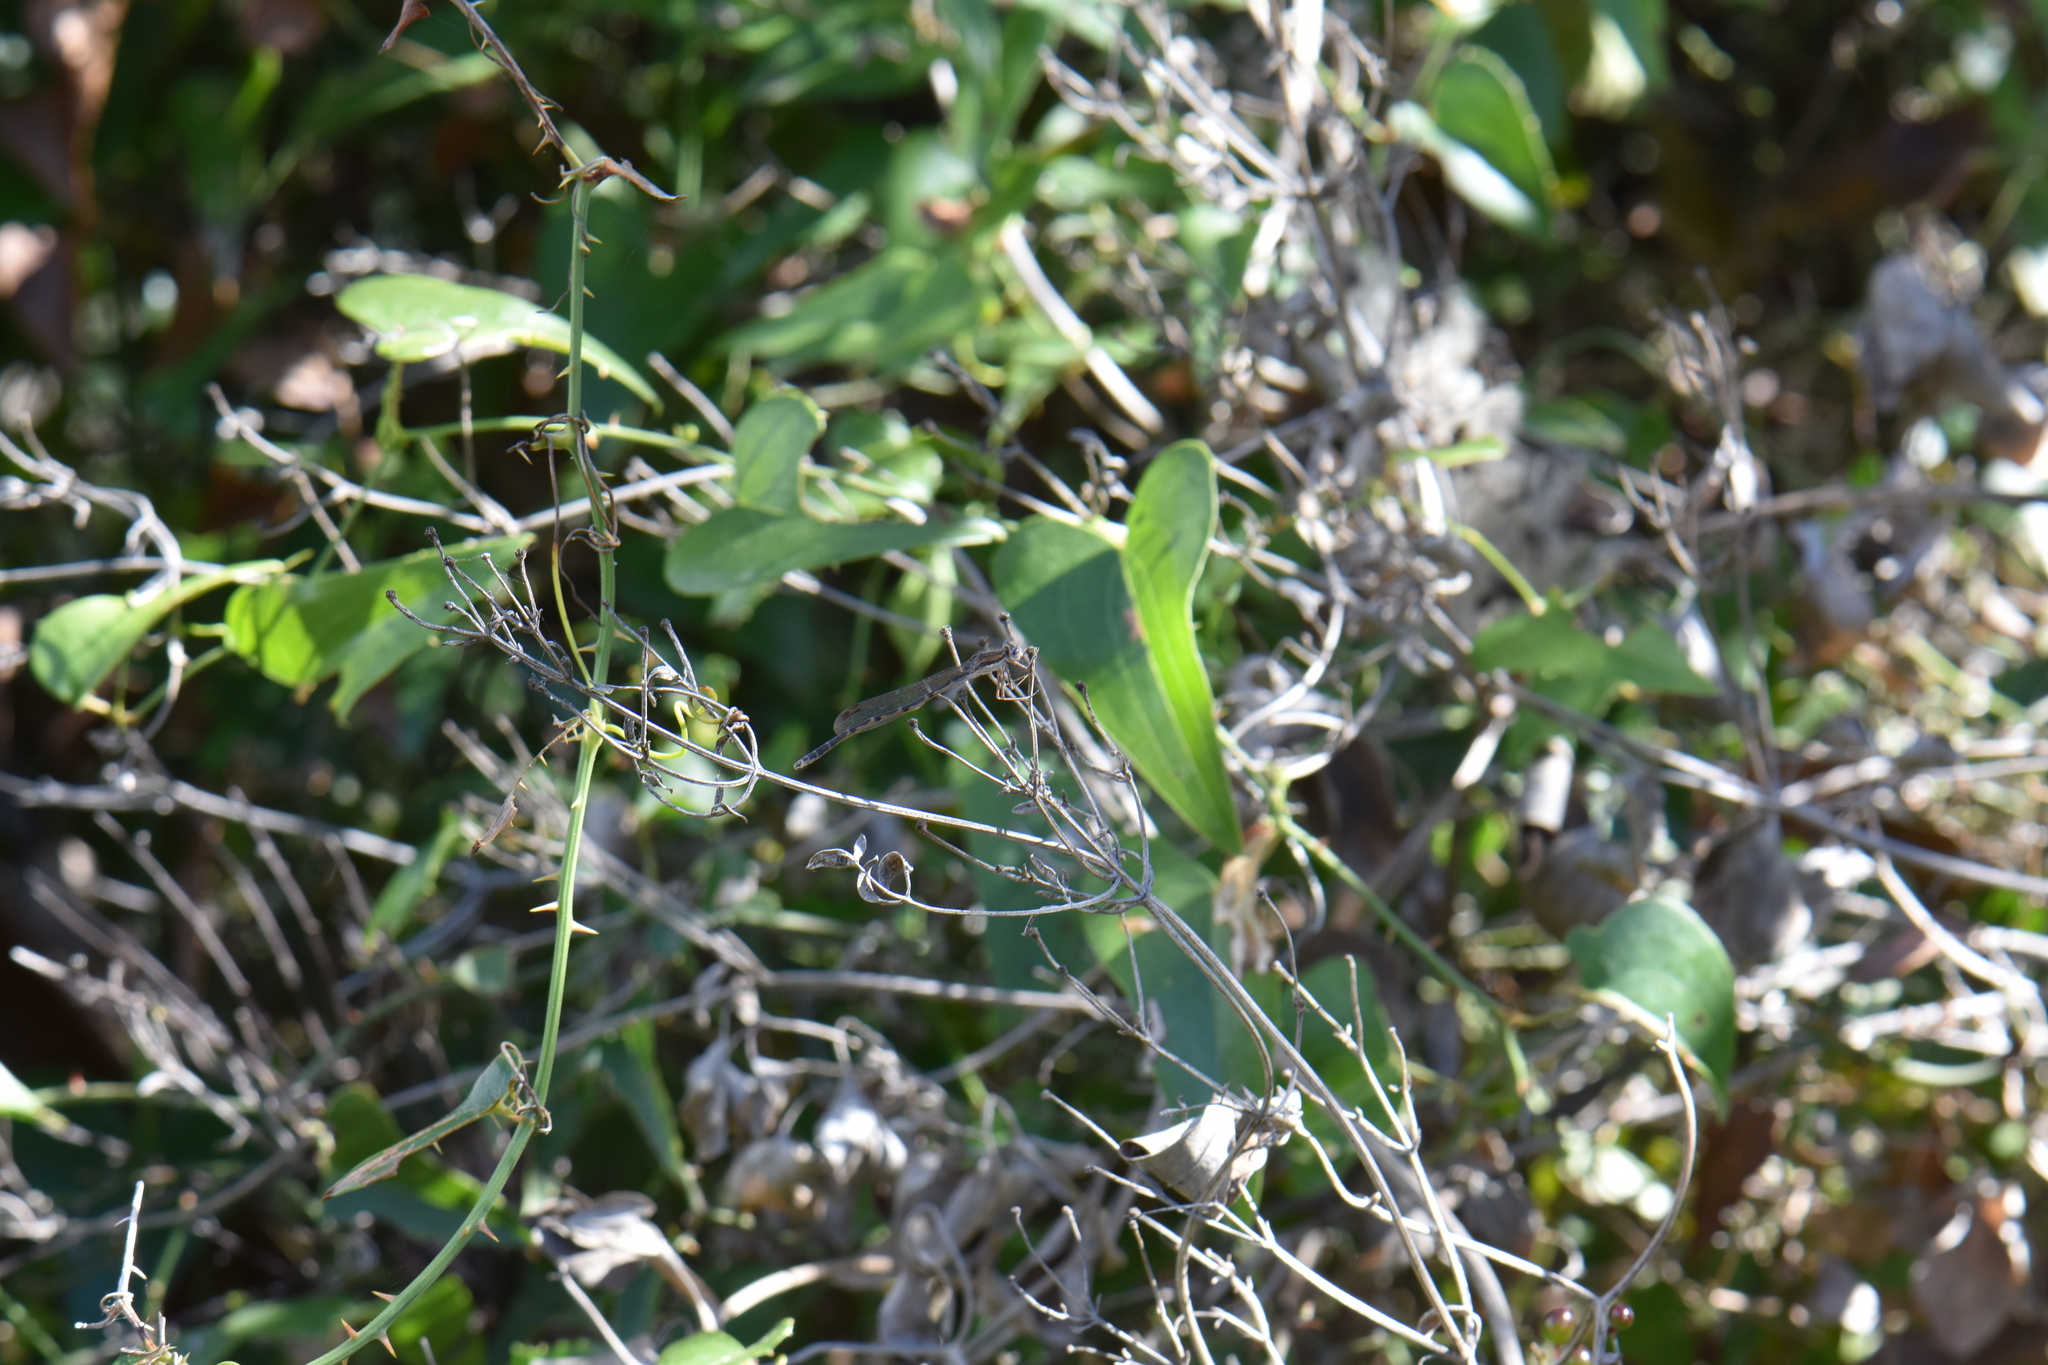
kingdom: Animalia
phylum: Arthropoda
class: Insecta
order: Odonata
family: Lestidae
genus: Sympecma
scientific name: Sympecma fusca
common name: Common winter damsel
